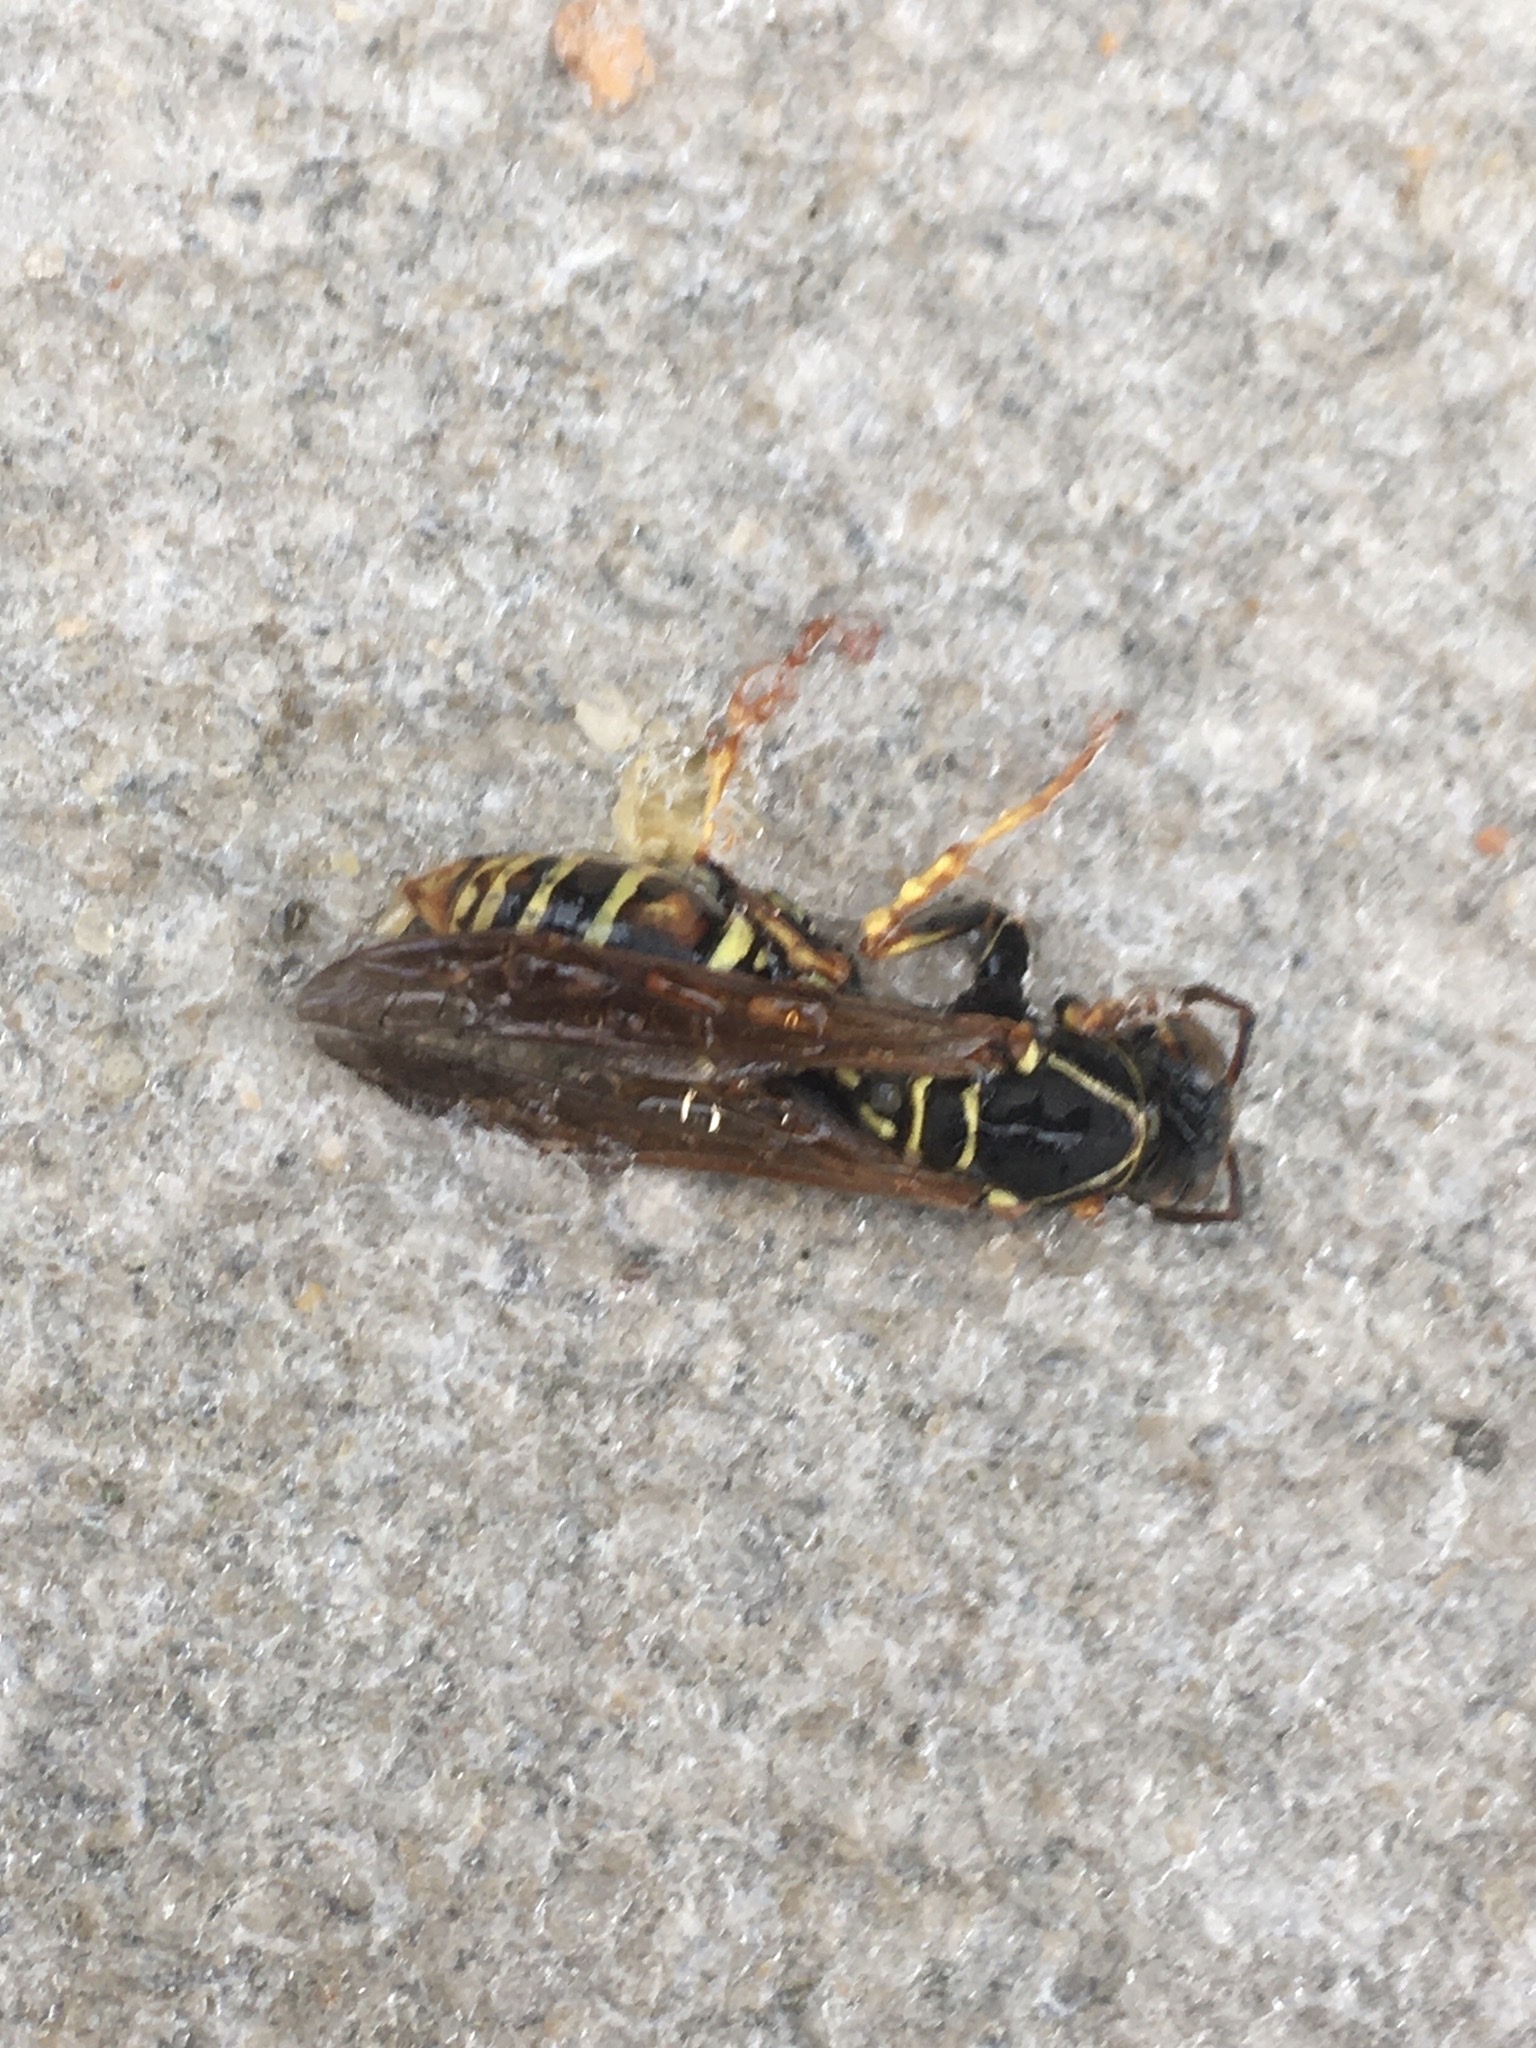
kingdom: Animalia
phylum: Arthropoda
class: Insecta
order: Hymenoptera
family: Eumenidae
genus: Polistes
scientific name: Polistes fuscatus
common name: Dark paper wasp
